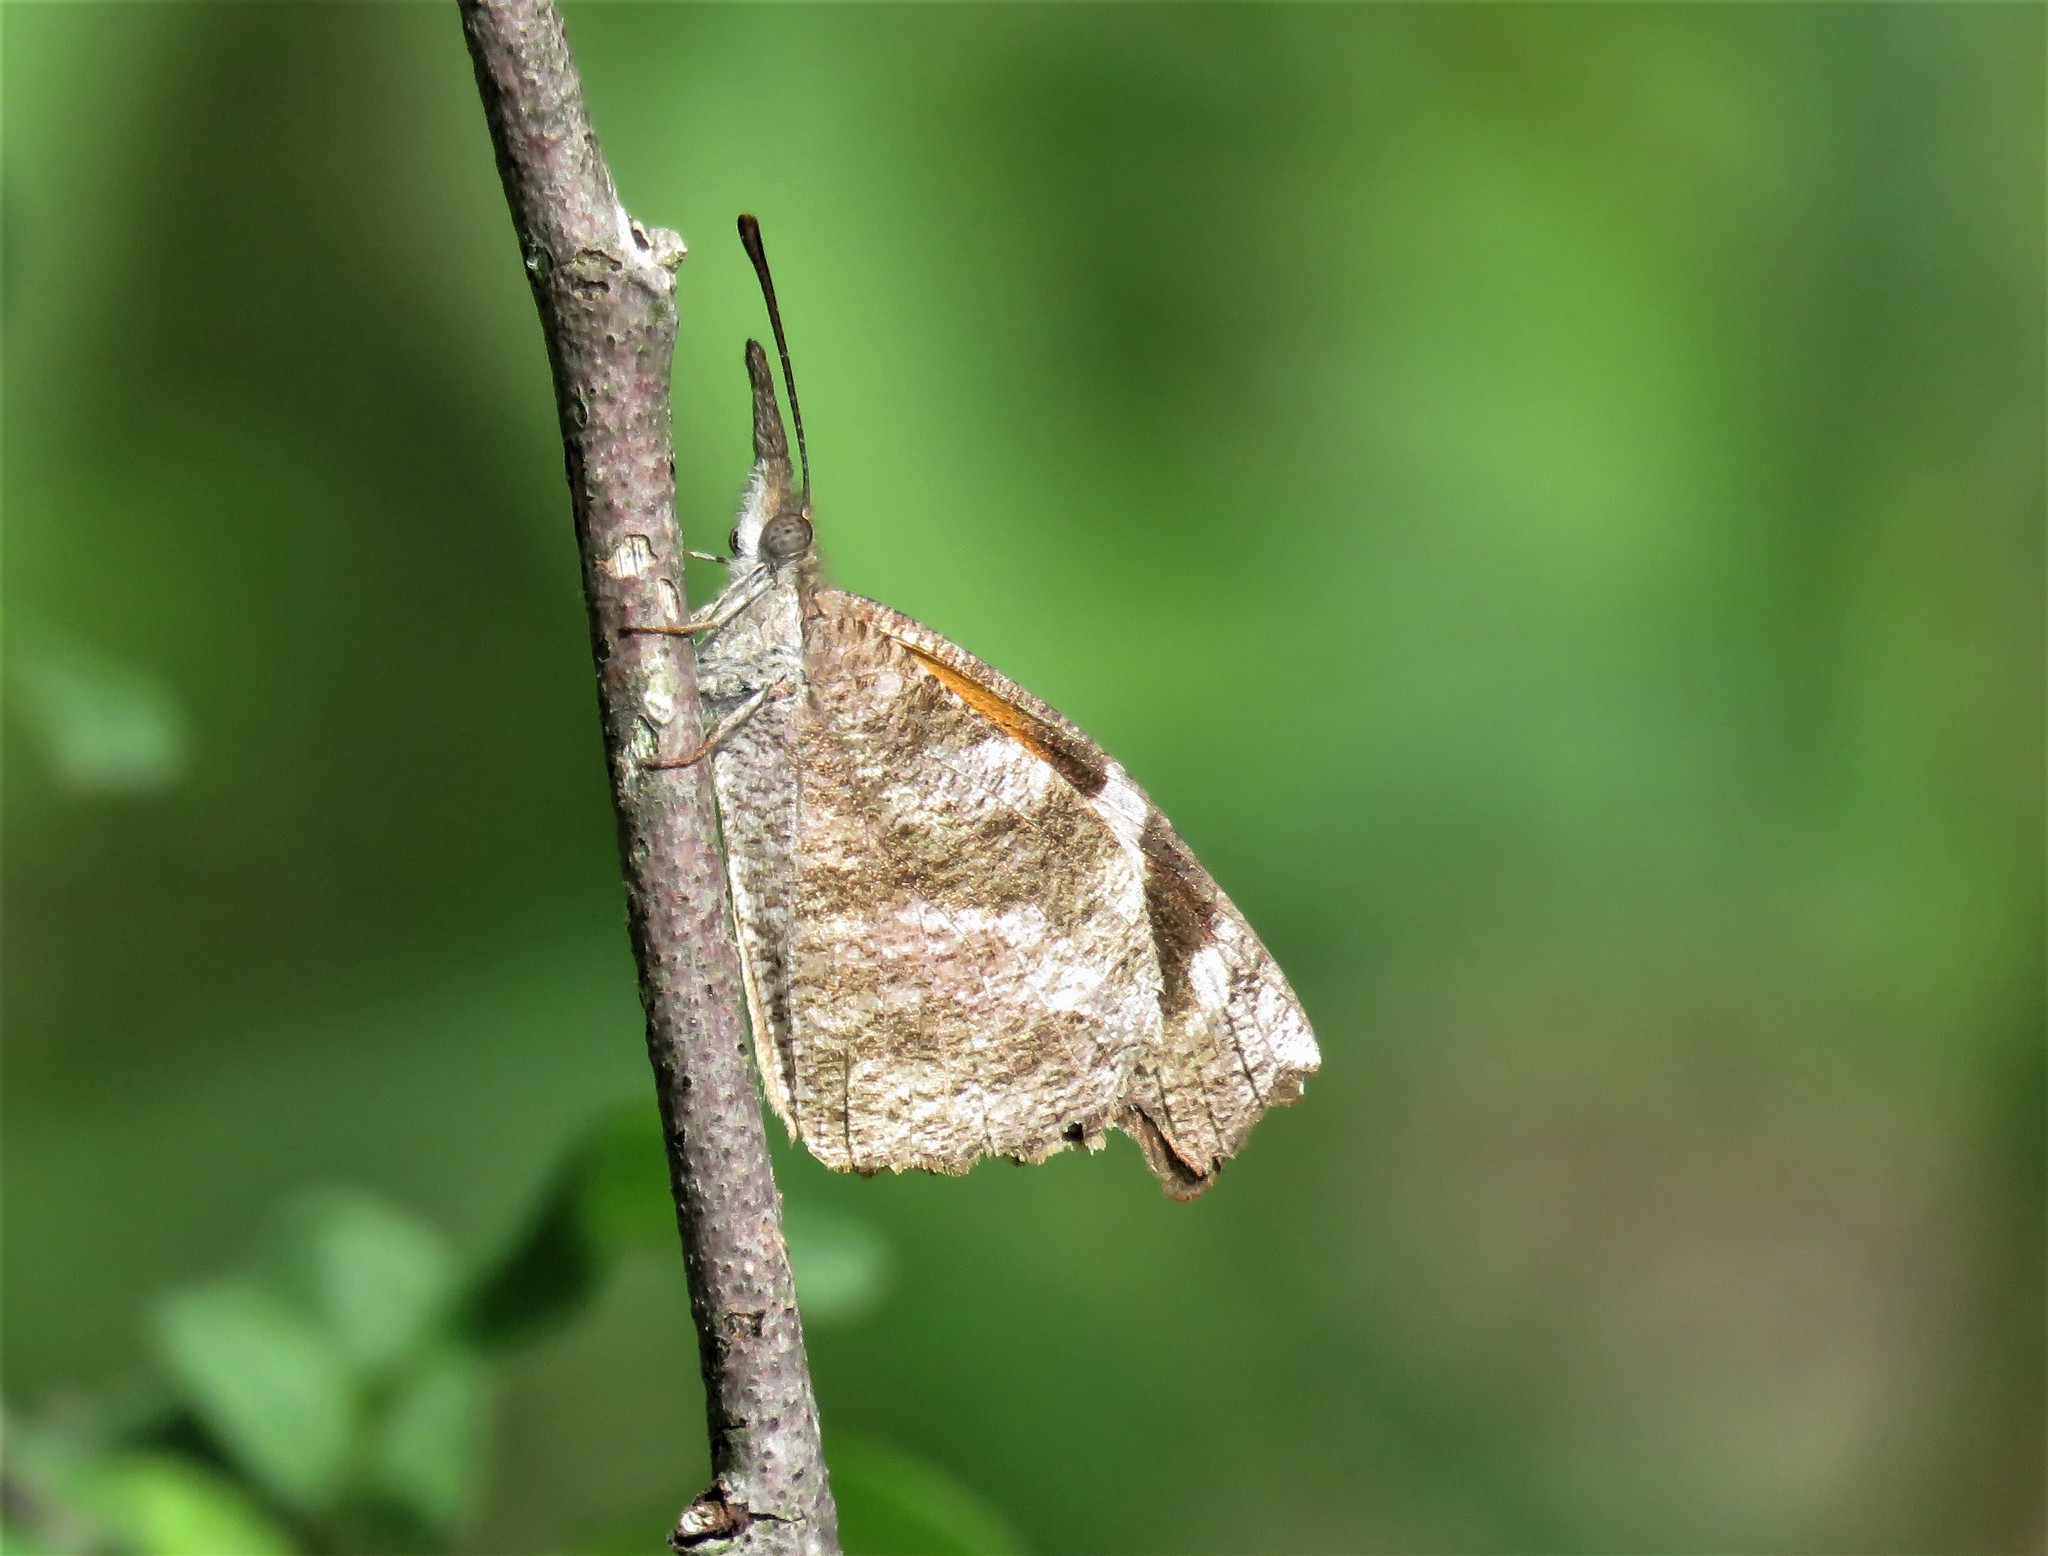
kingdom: Animalia
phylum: Arthropoda
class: Insecta
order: Lepidoptera
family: Nymphalidae
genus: Libytheana
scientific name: Libytheana carinenta
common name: American snout
